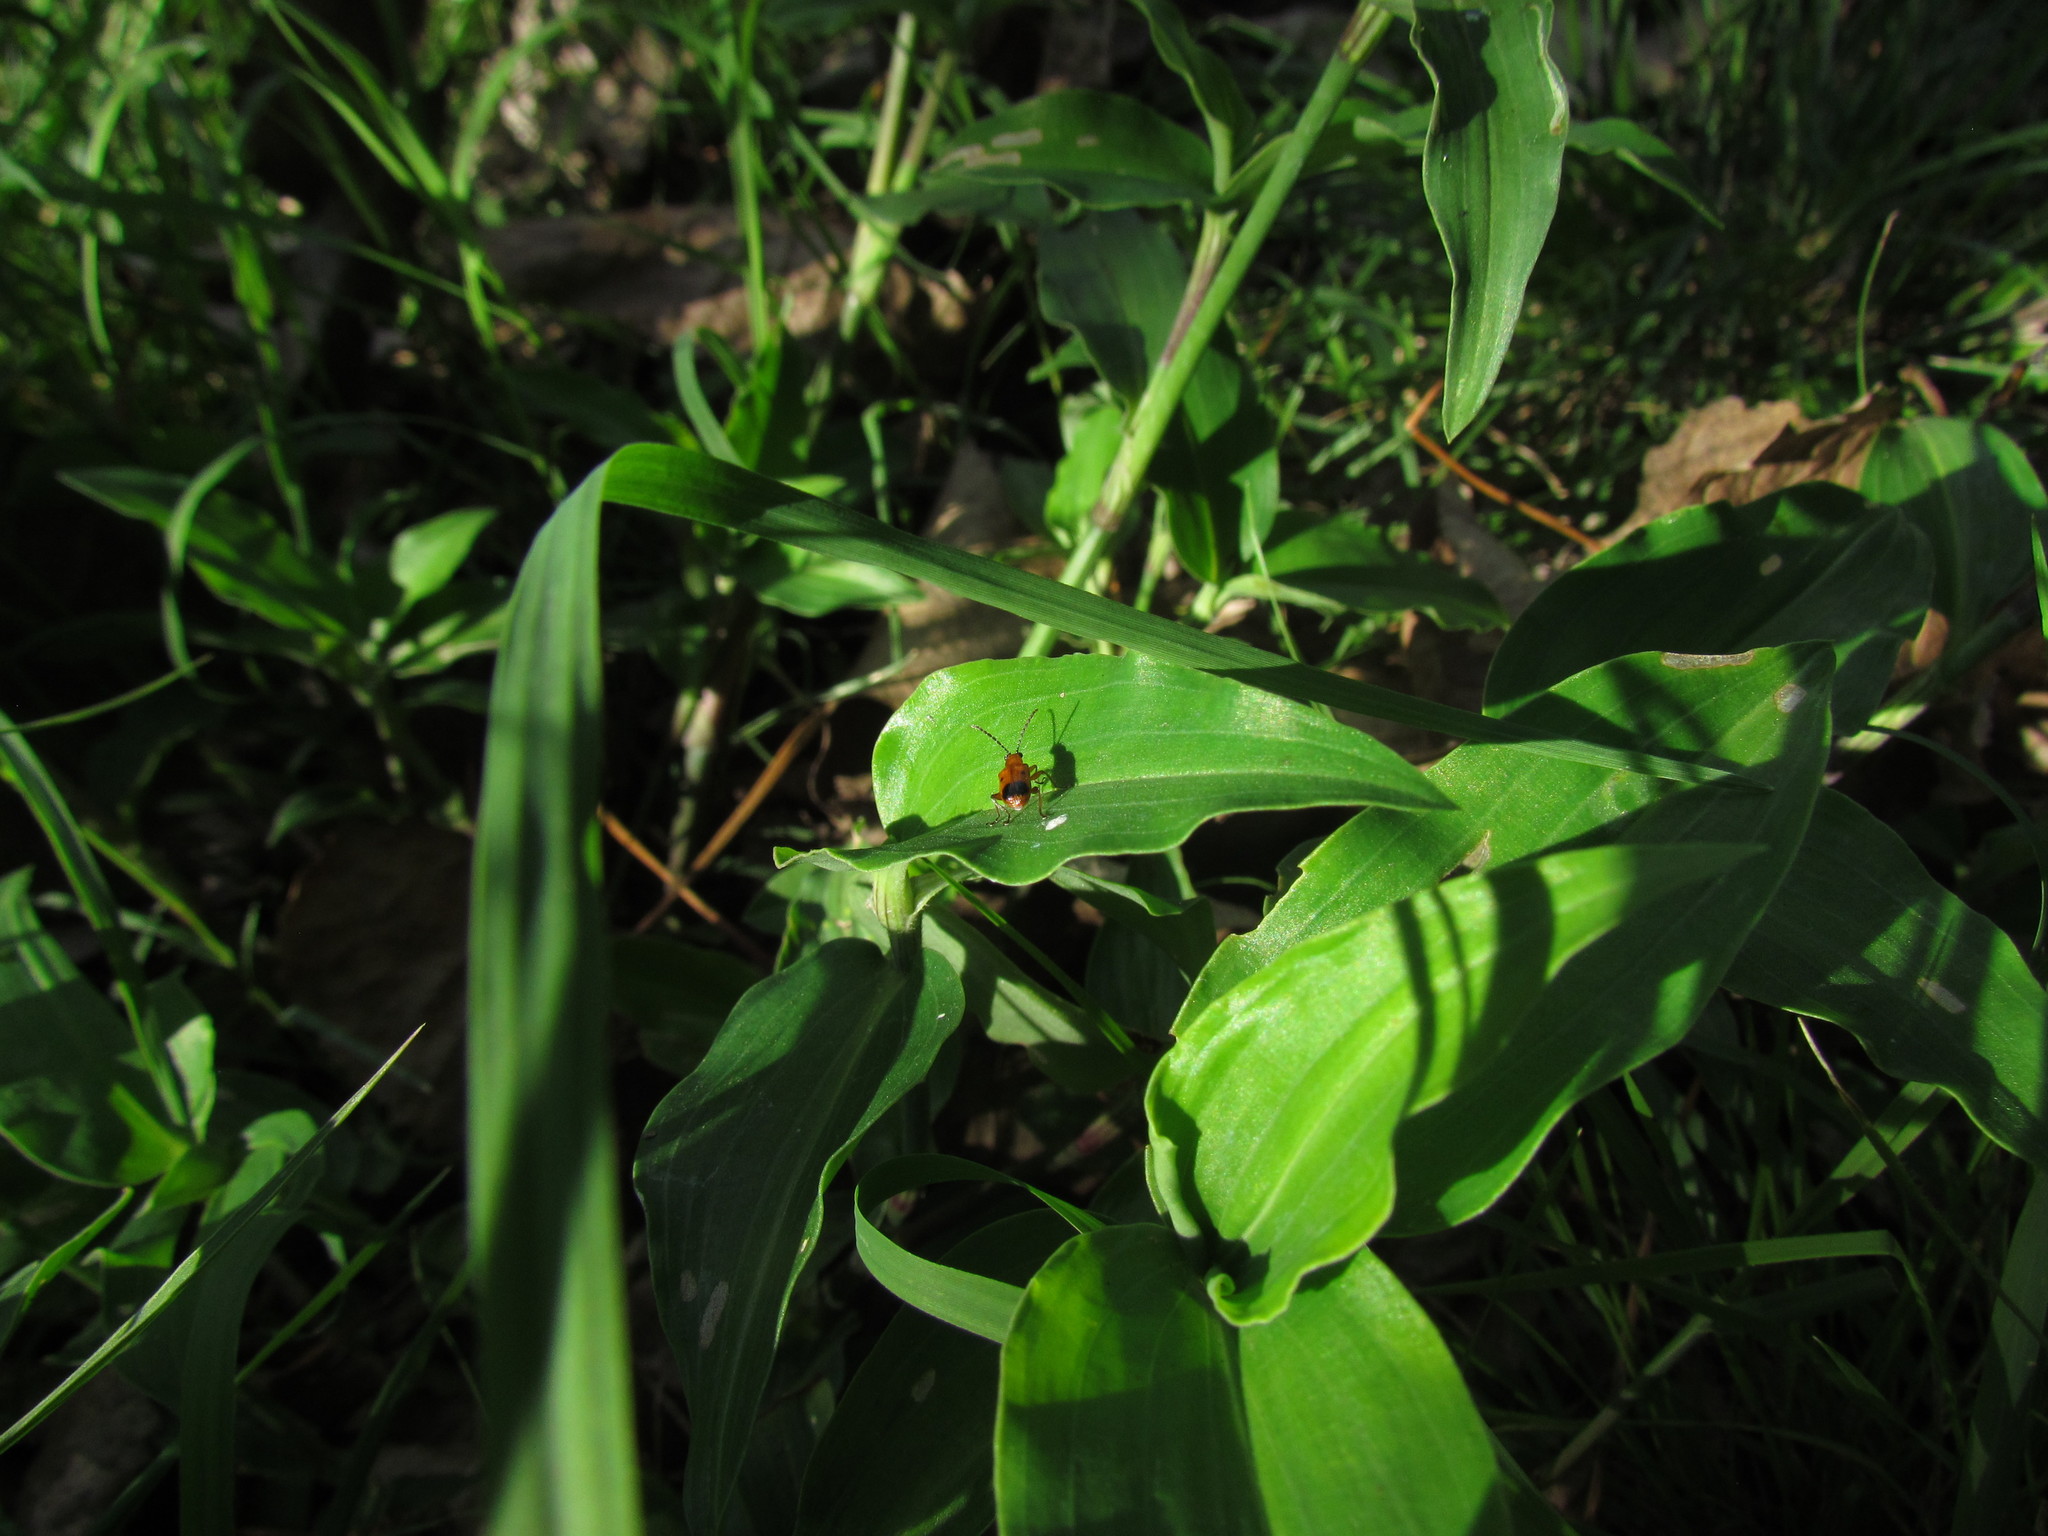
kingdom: Animalia
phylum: Arthropoda
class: Insecta
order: Coleoptera
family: Chrysomelidae
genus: Neolema
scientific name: Neolema dorsalis
